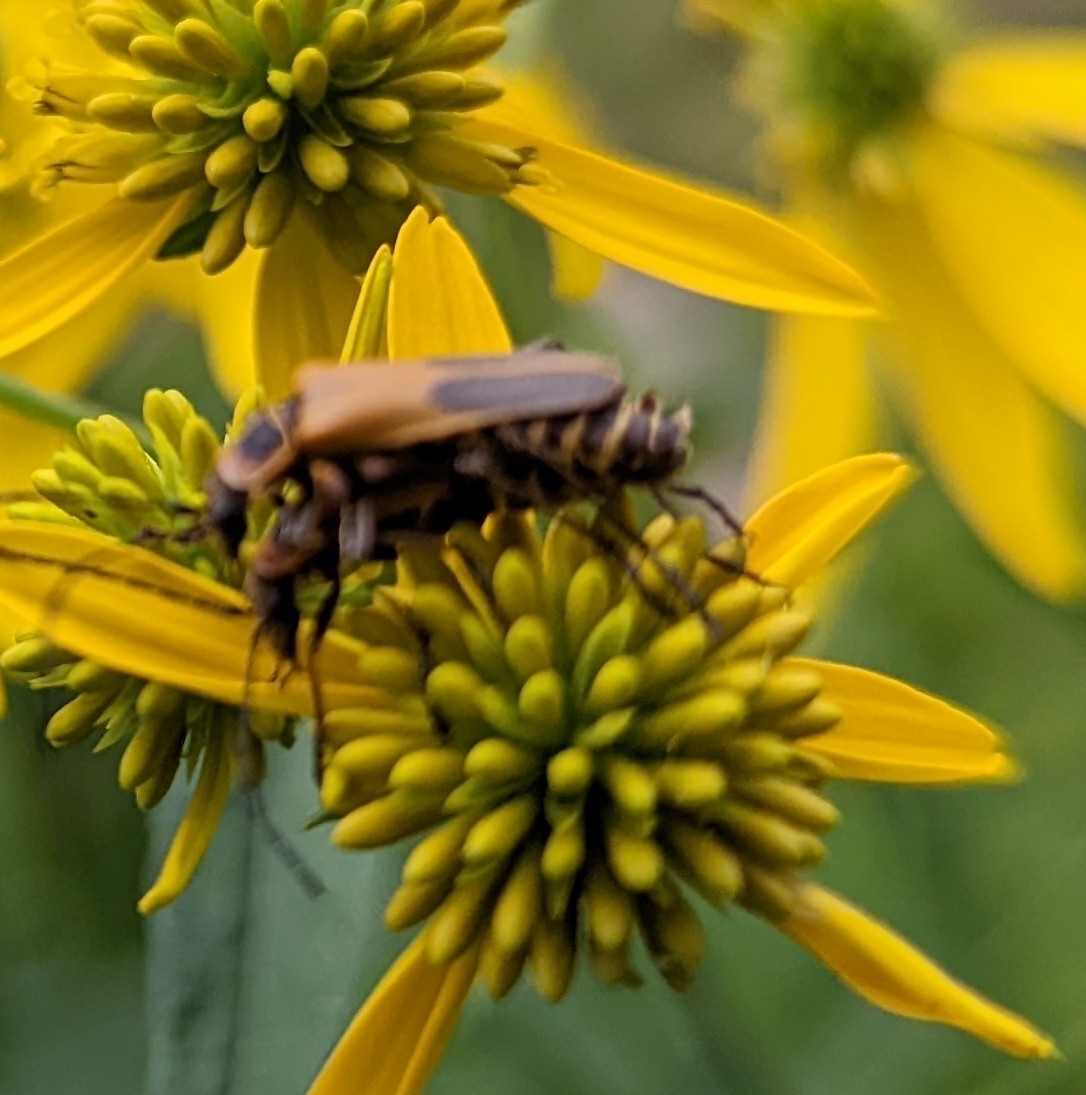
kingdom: Animalia
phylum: Arthropoda
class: Insecta
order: Coleoptera
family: Cantharidae
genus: Chauliognathus
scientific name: Chauliognathus pensylvanicus
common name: Goldenrod soldier beetle
